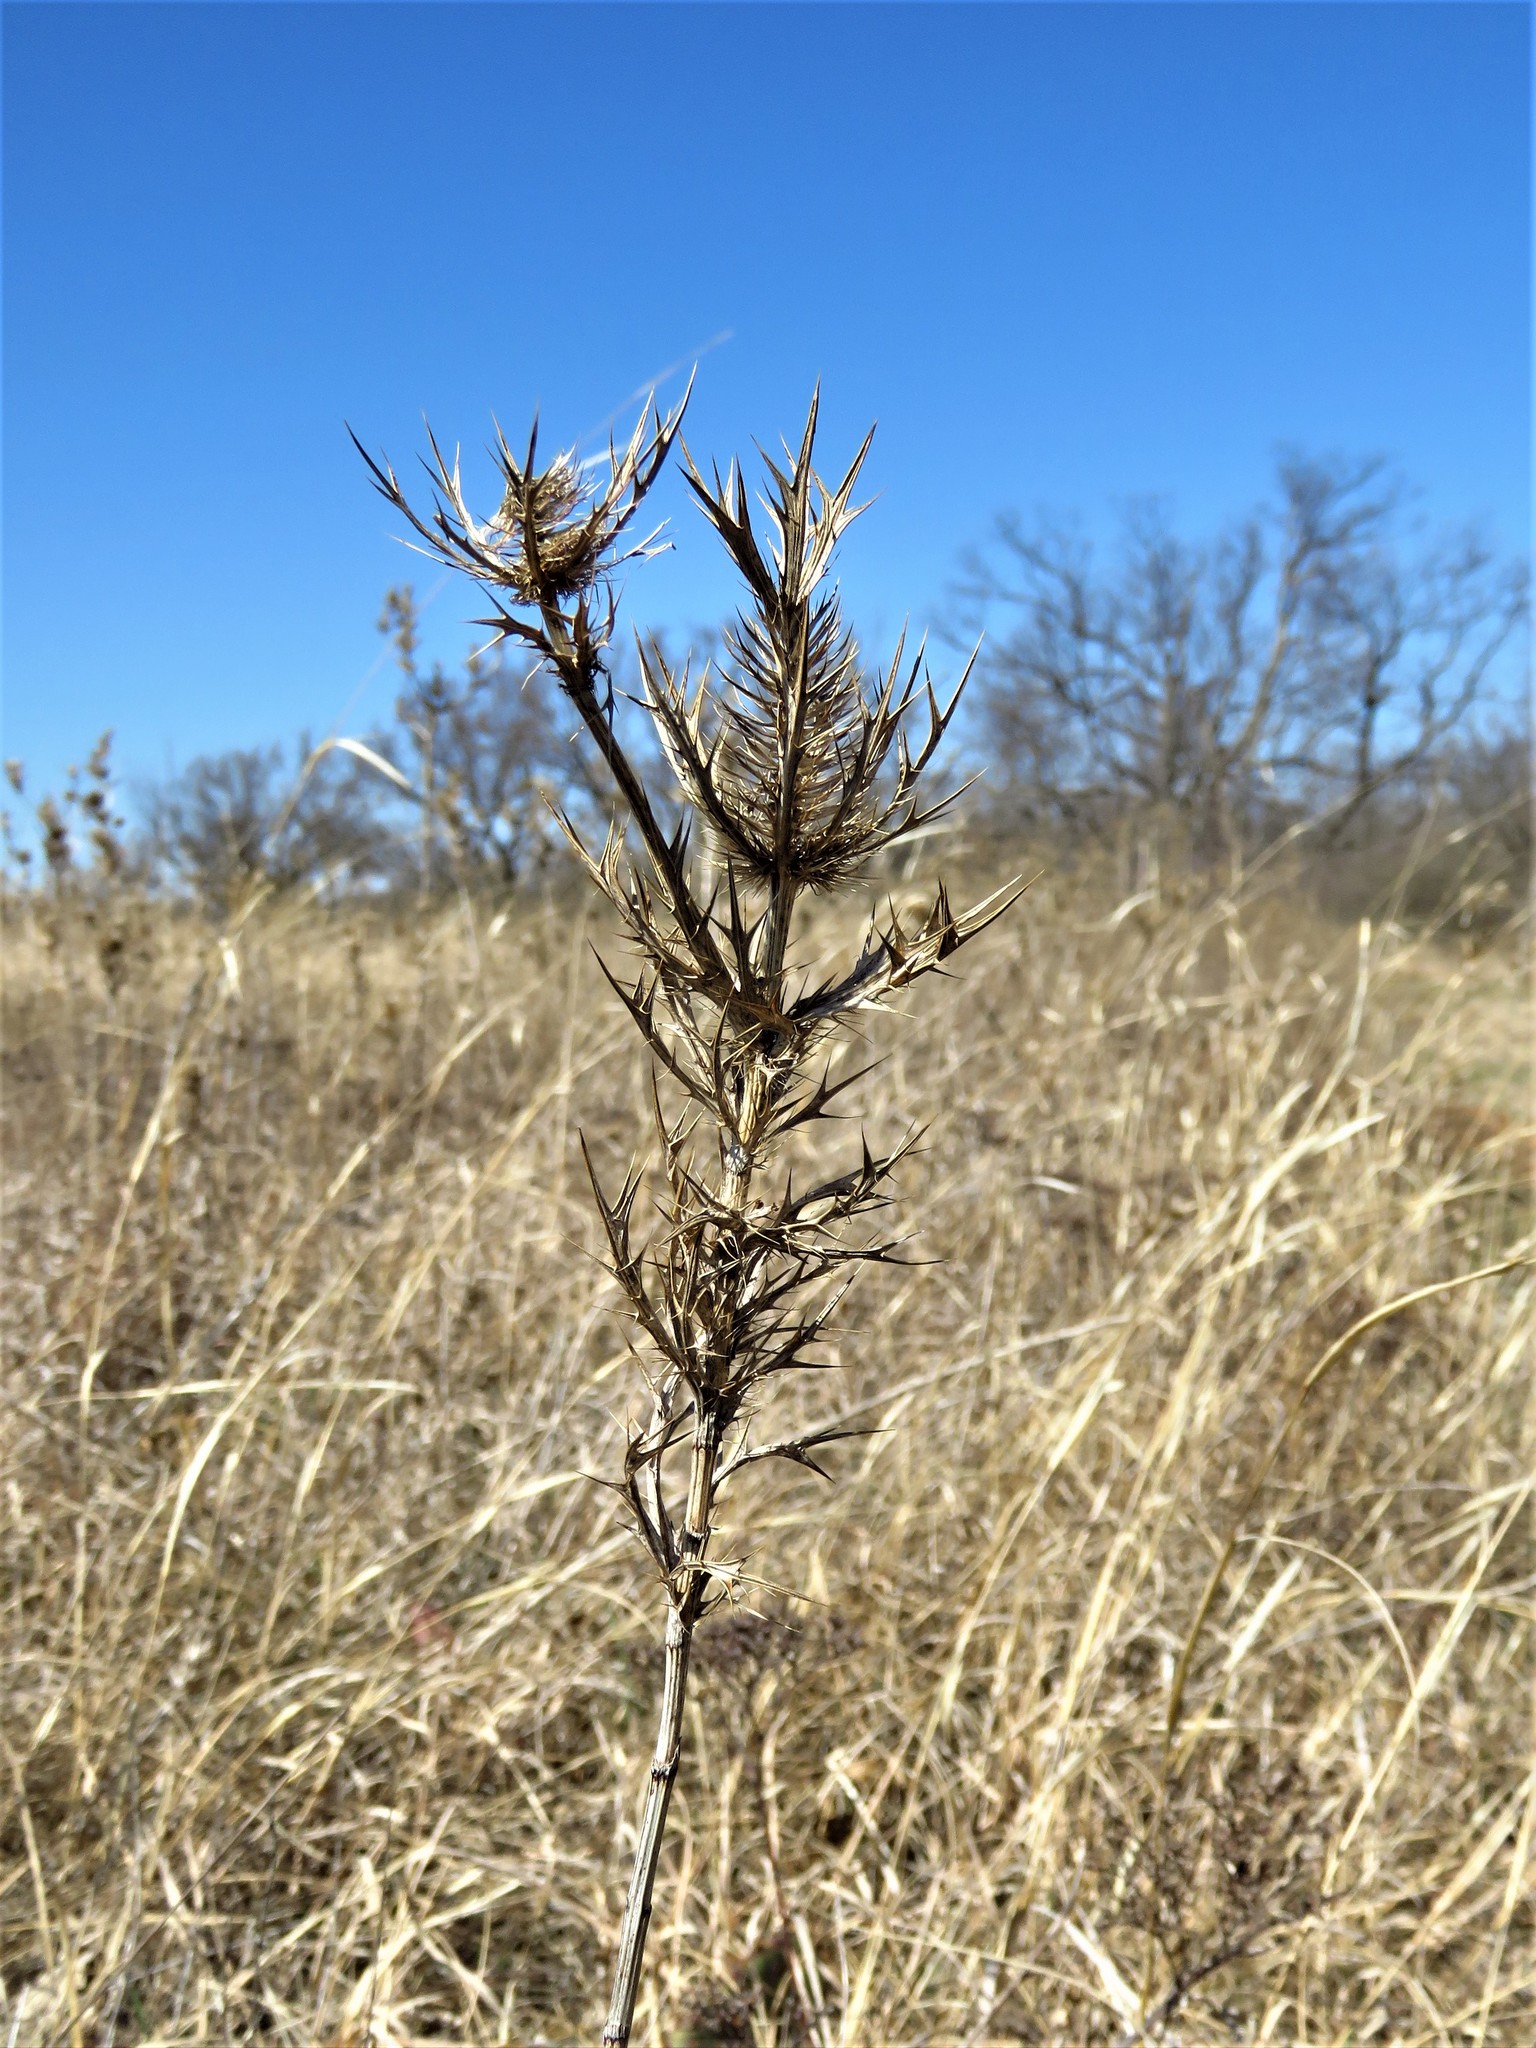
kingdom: Plantae
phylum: Tracheophyta
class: Magnoliopsida
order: Apiales
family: Apiaceae
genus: Eryngium
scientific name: Eryngium leavenworthii
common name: Leavenworth's eryngo
